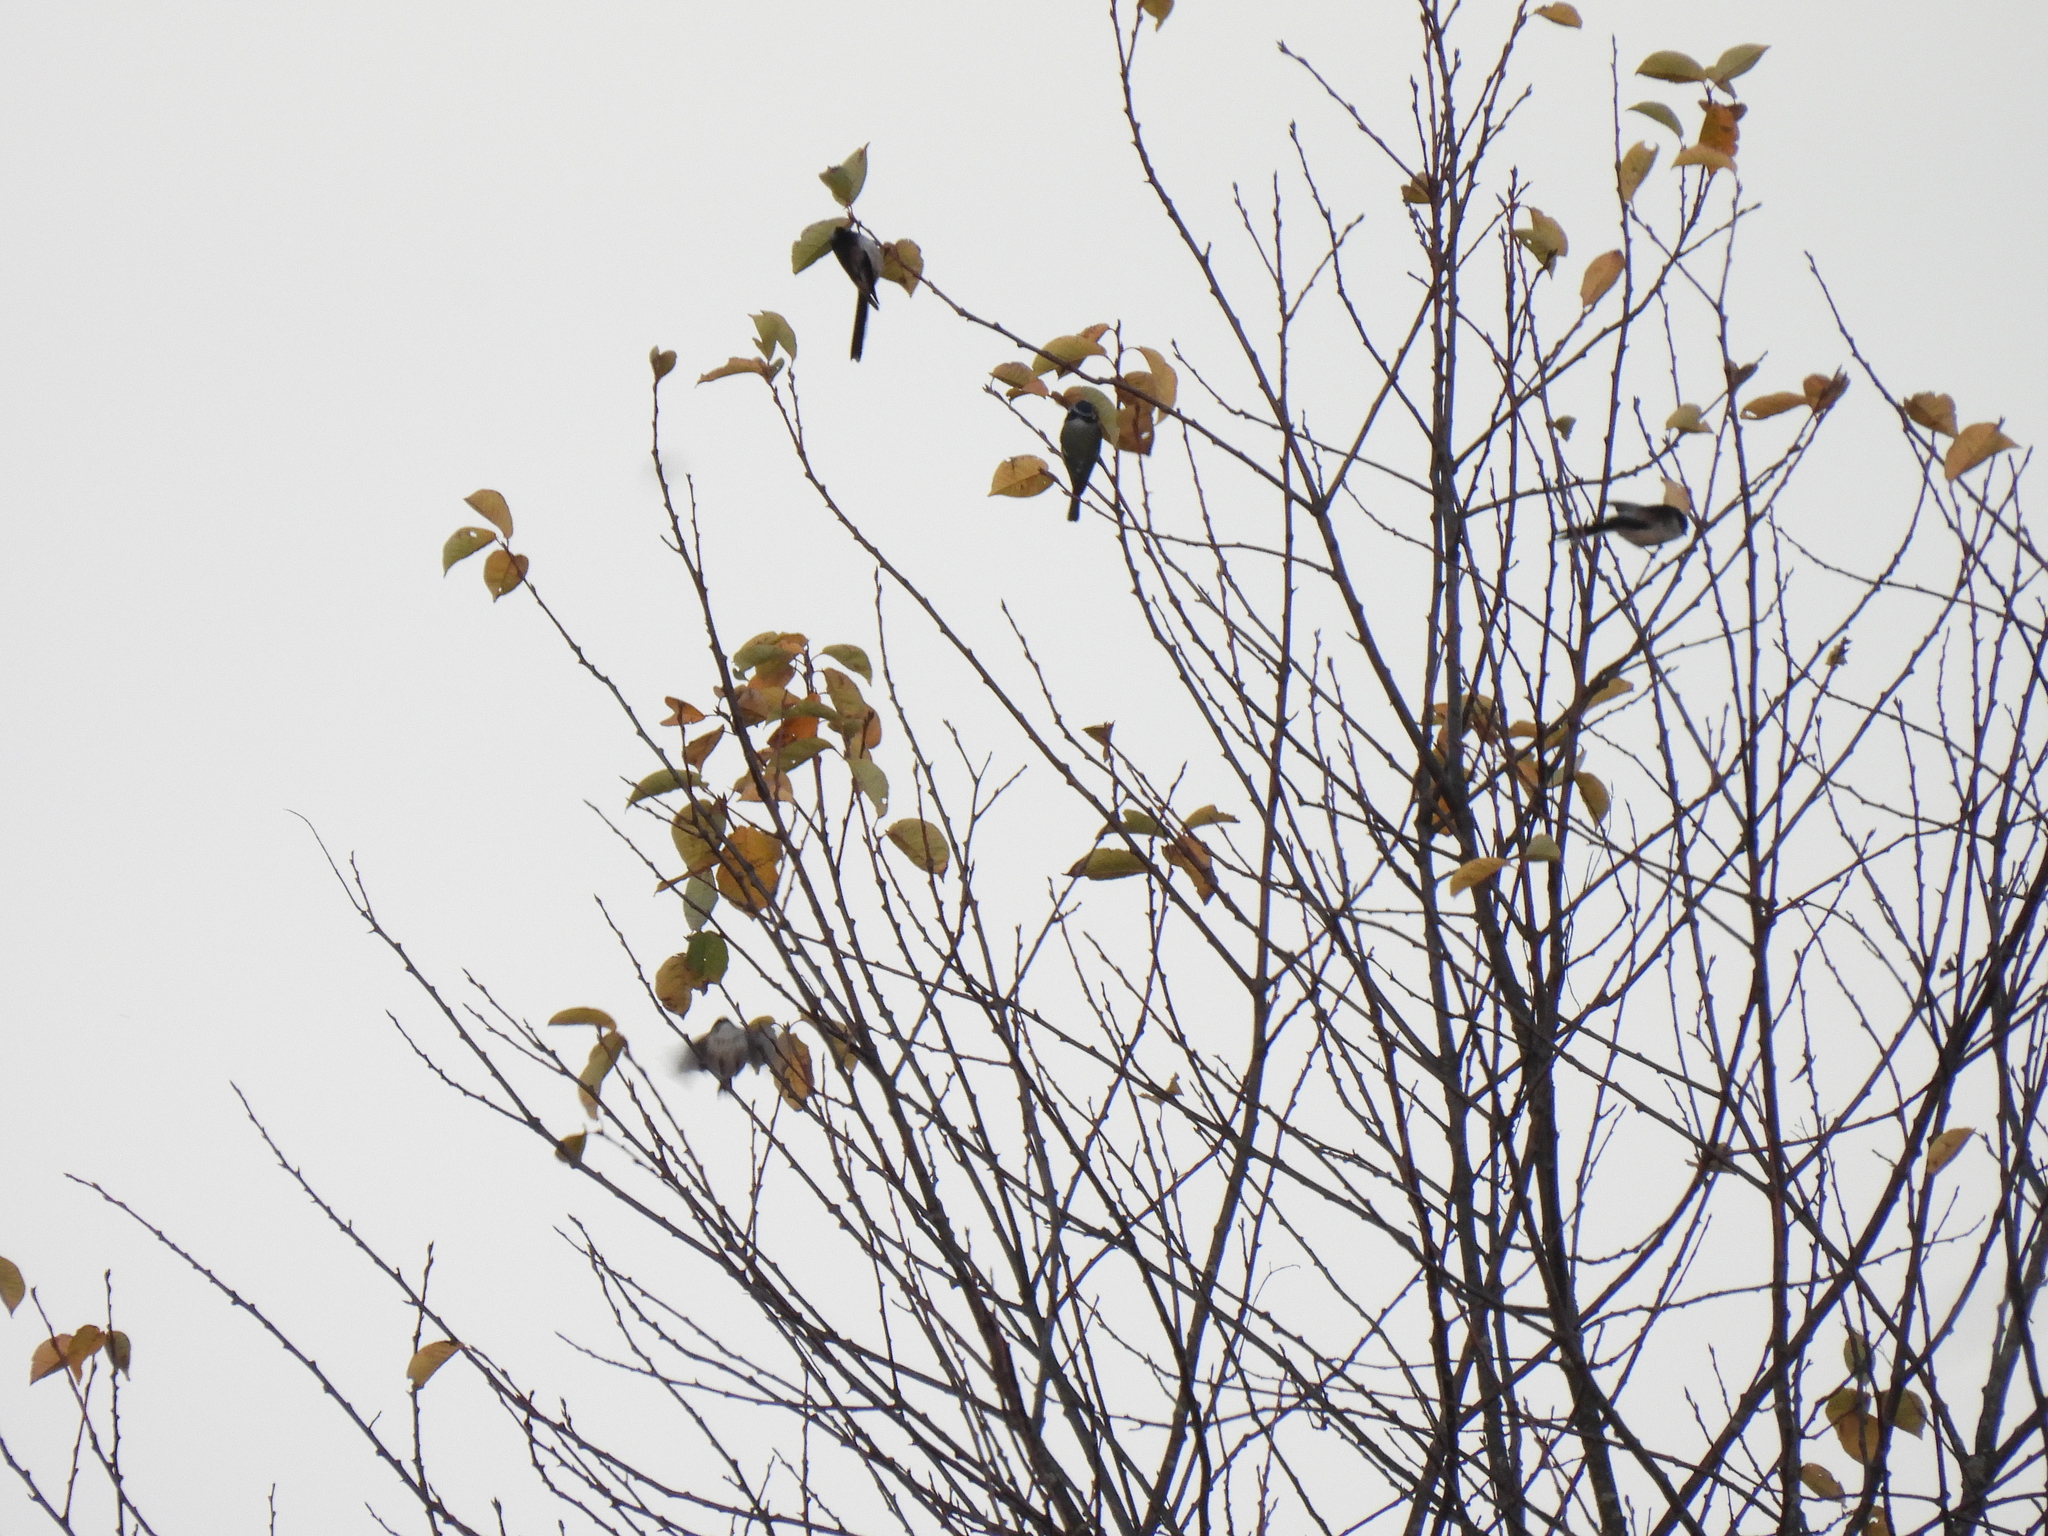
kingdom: Animalia
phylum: Chordata
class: Aves
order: Passeriformes
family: Aegithalidae
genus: Aegithalos
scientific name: Aegithalos caudatus
